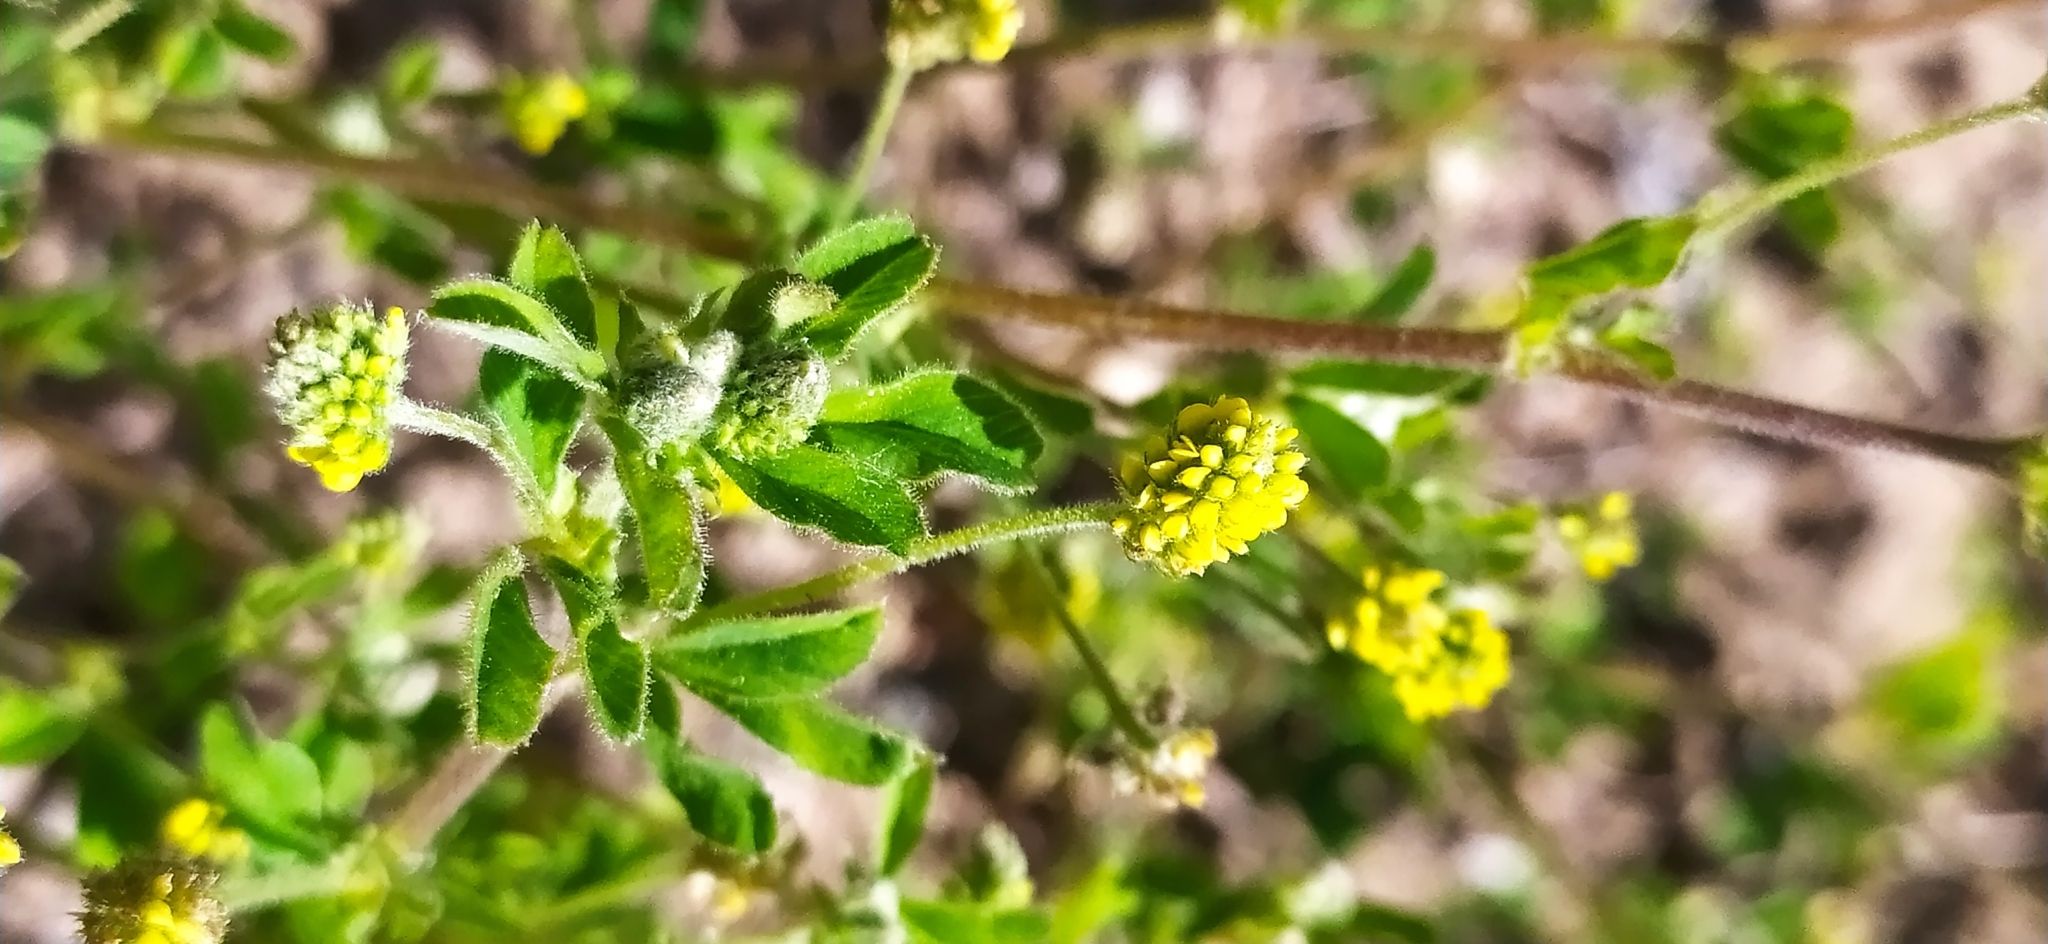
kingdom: Plantae
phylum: Tracheophyta
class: Magnoliopsida
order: Fabales
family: Fabaceae
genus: Medicago
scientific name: Medicago lupulina
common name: Black medick
